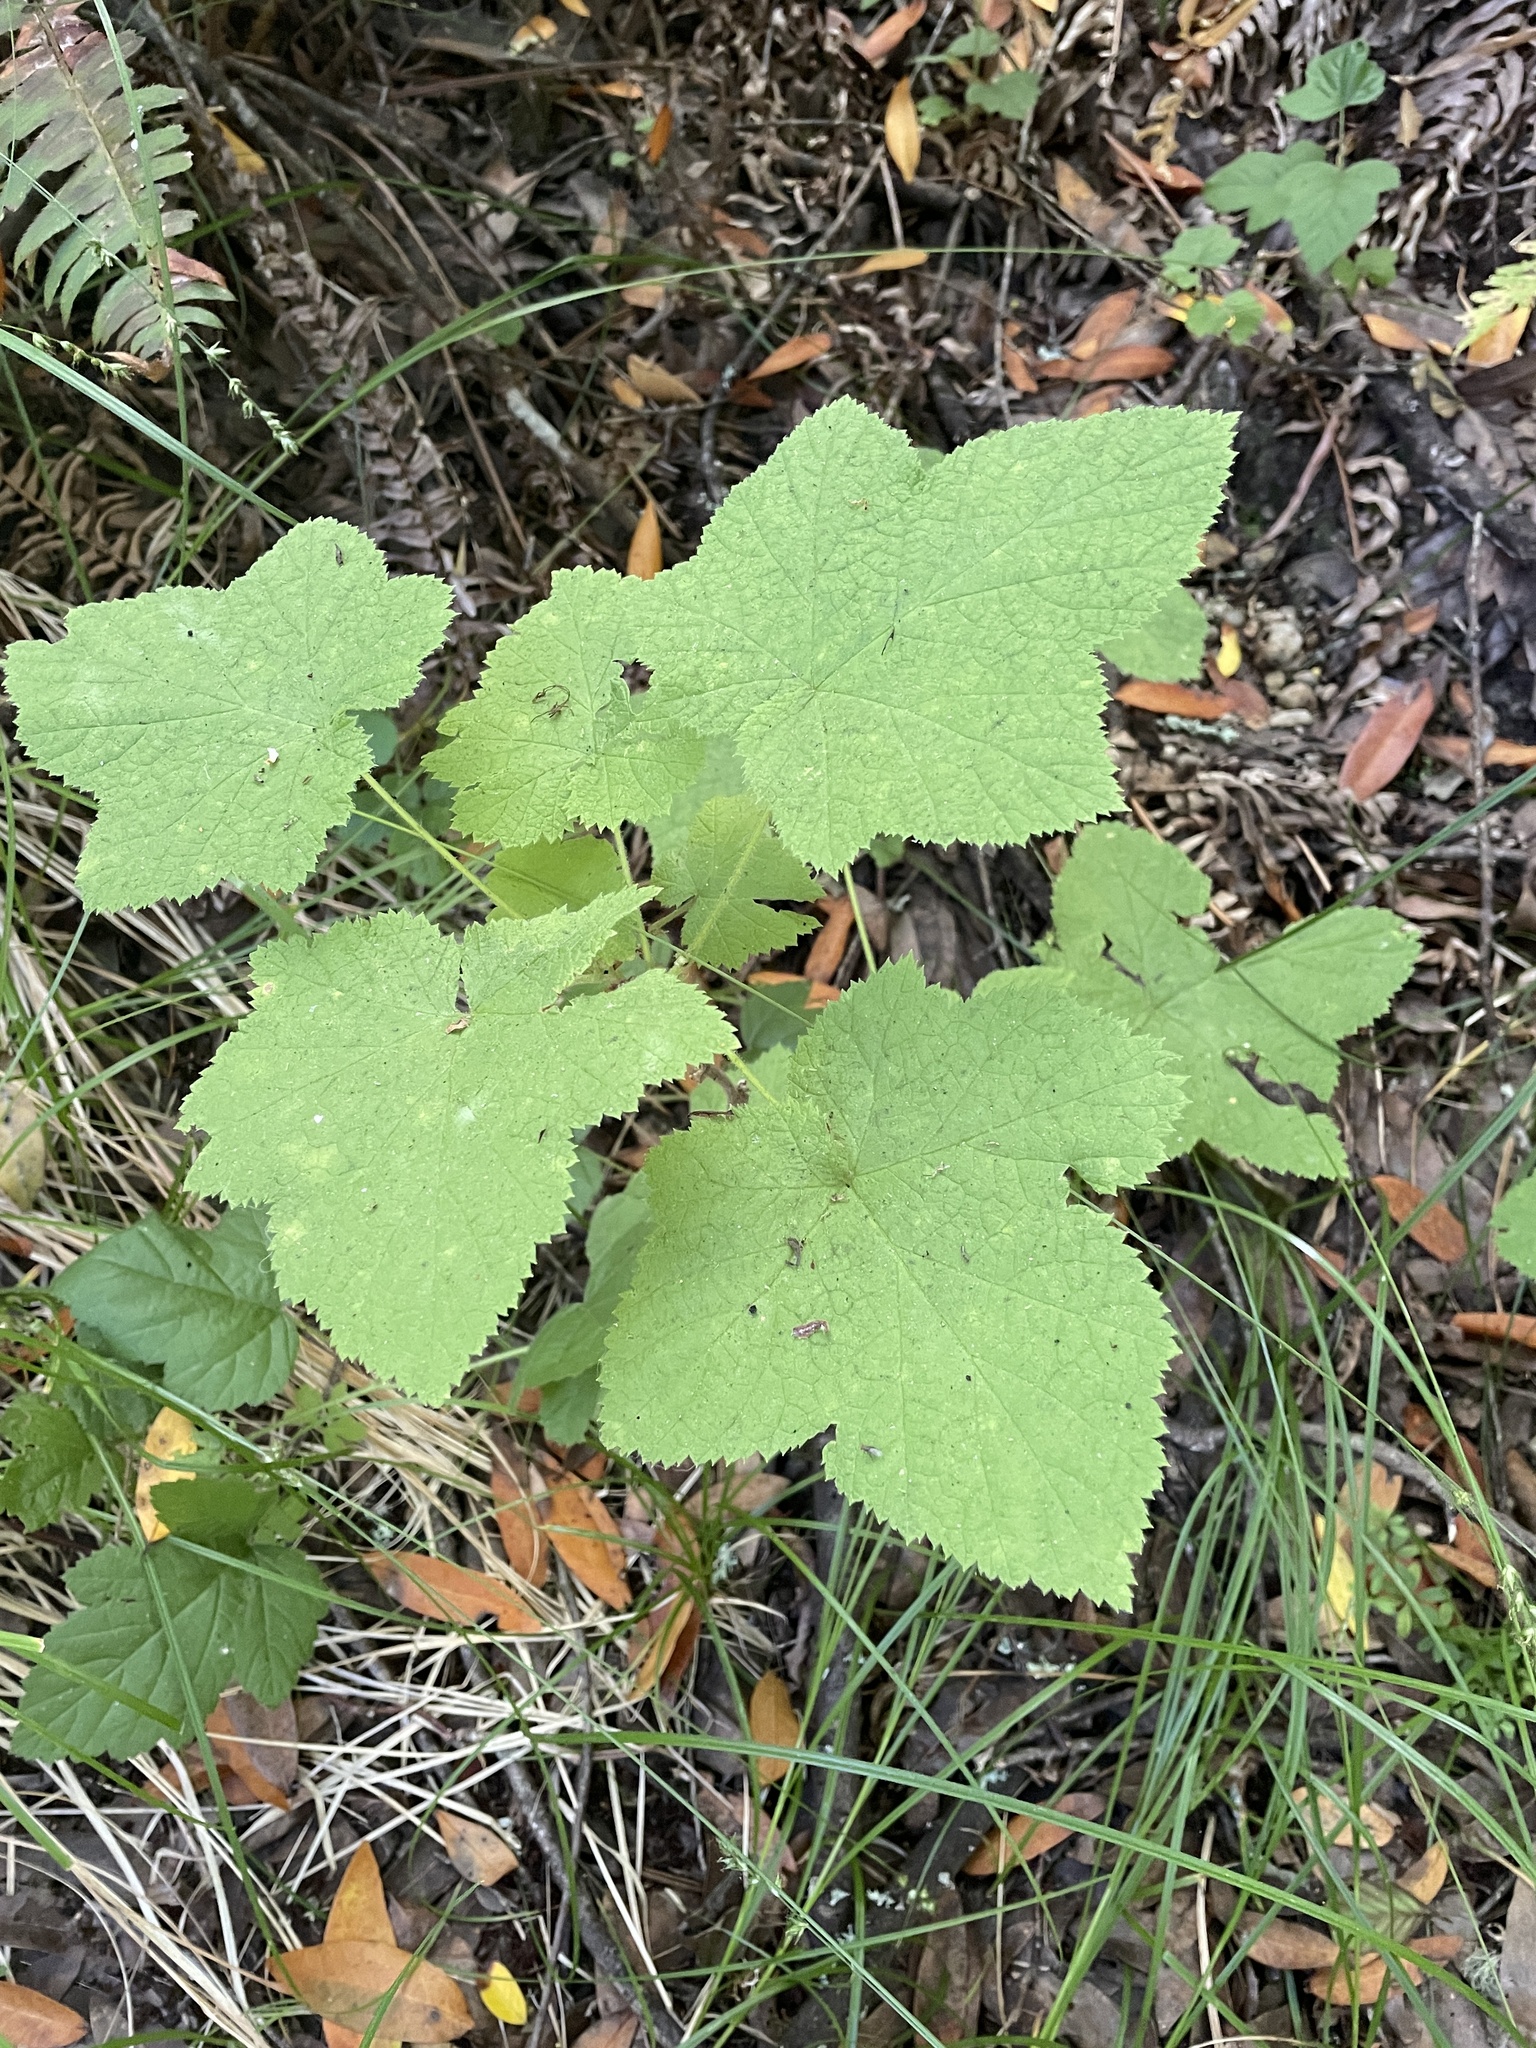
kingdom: Plantae
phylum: Tracheophyta
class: Magnoliopsida
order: Rosales
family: Rosaceae
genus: Rubus
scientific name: Rubus parviflorus
